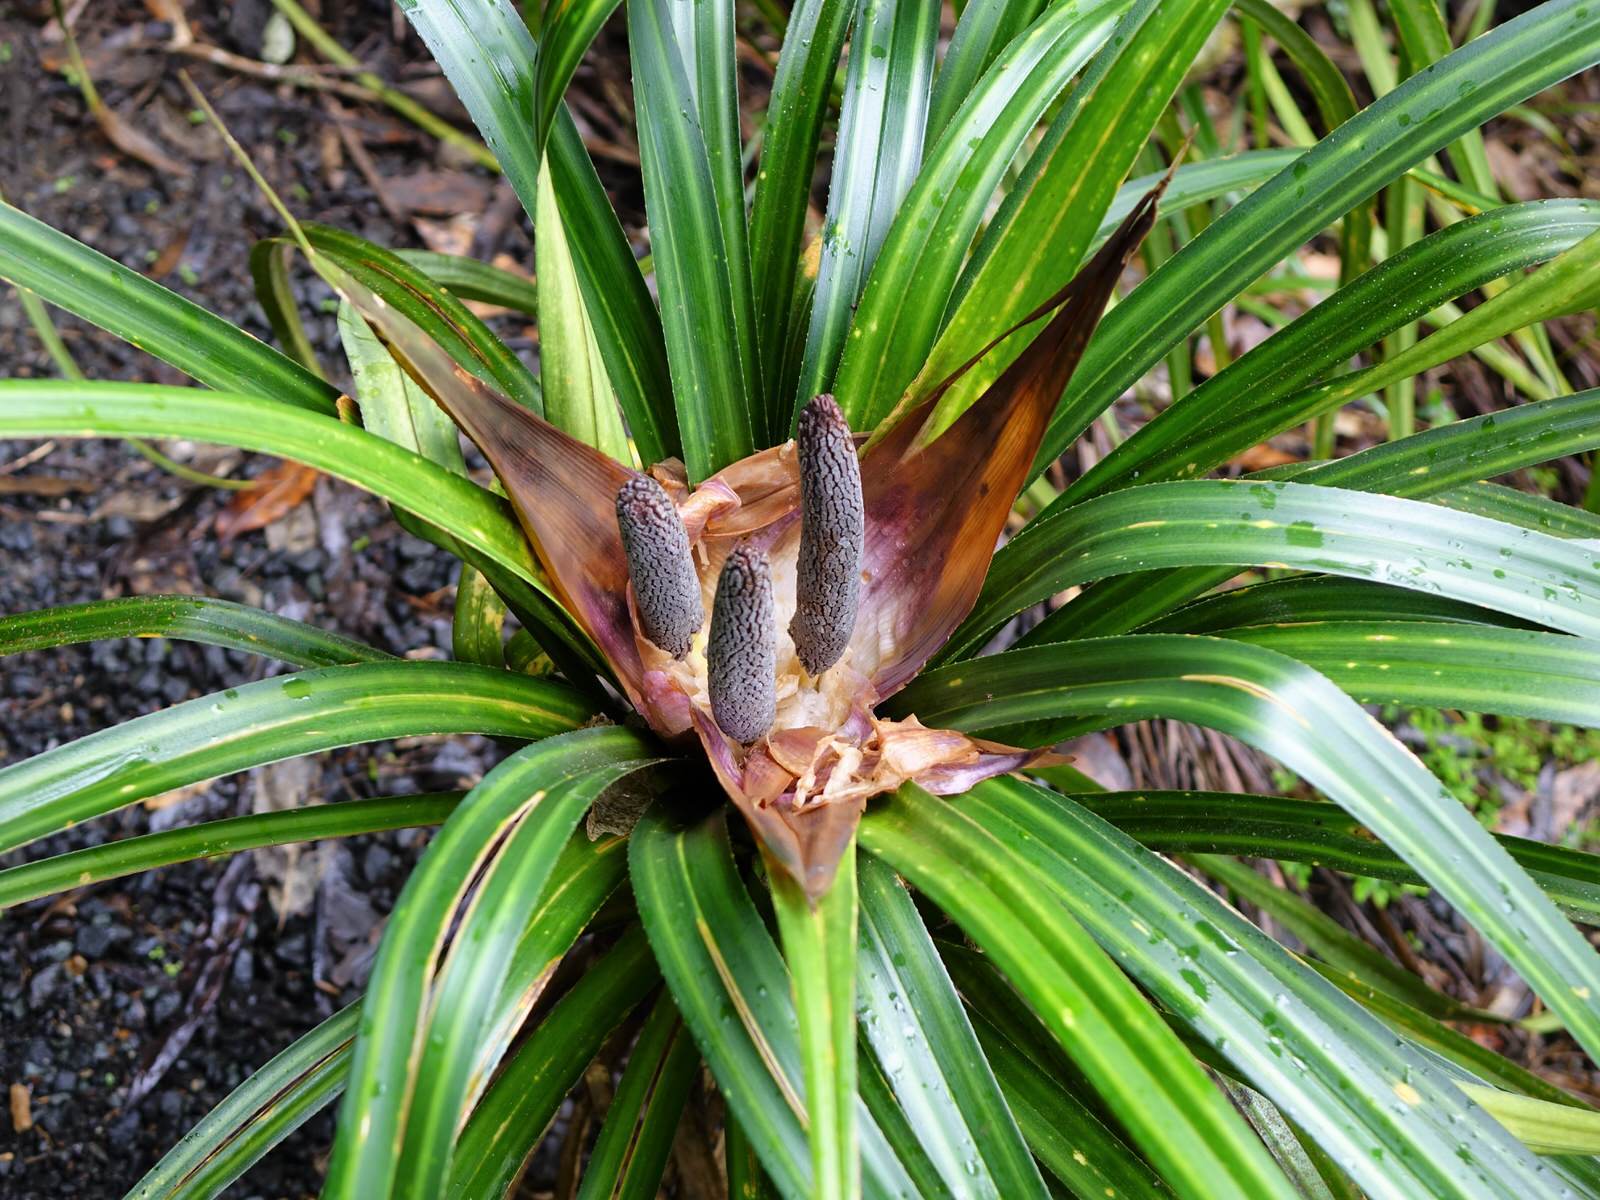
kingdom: Plantae
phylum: Tracheophyta
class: Liliopsida
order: Pandanales
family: Pandanaceae
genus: Freycinetia
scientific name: Freycinetia banksii
